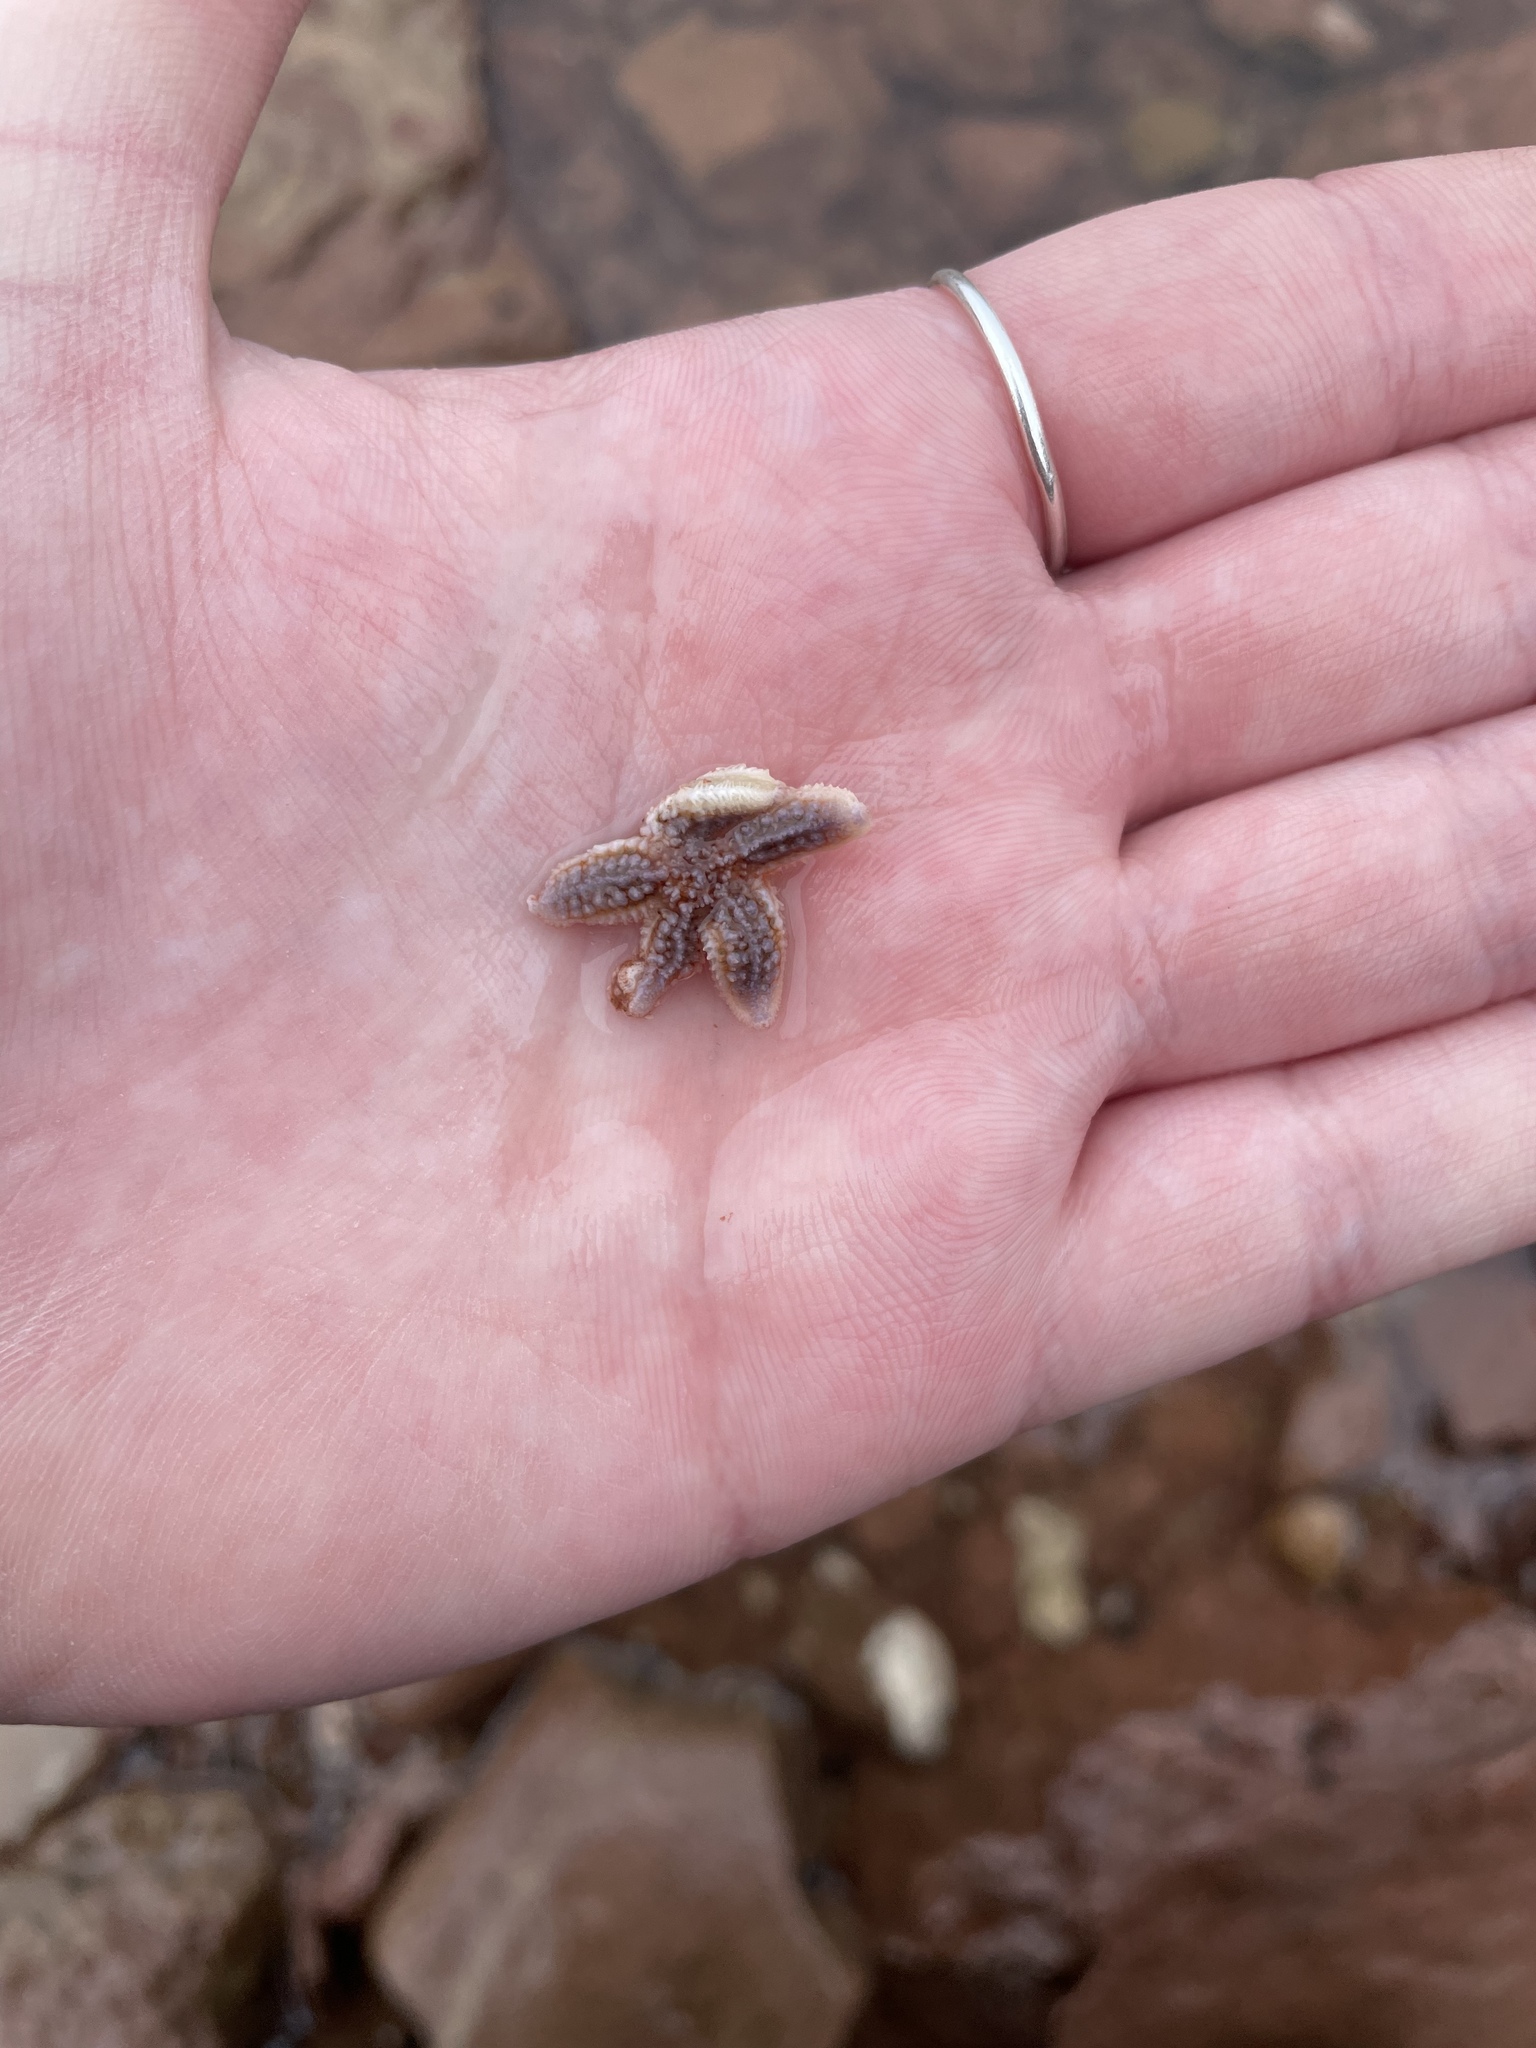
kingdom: Animalia
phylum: Echinodermata
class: Asteroidea
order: Forcipulatida
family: Asteriidae
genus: Asterias
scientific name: Asterias rubens
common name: Common starfish
